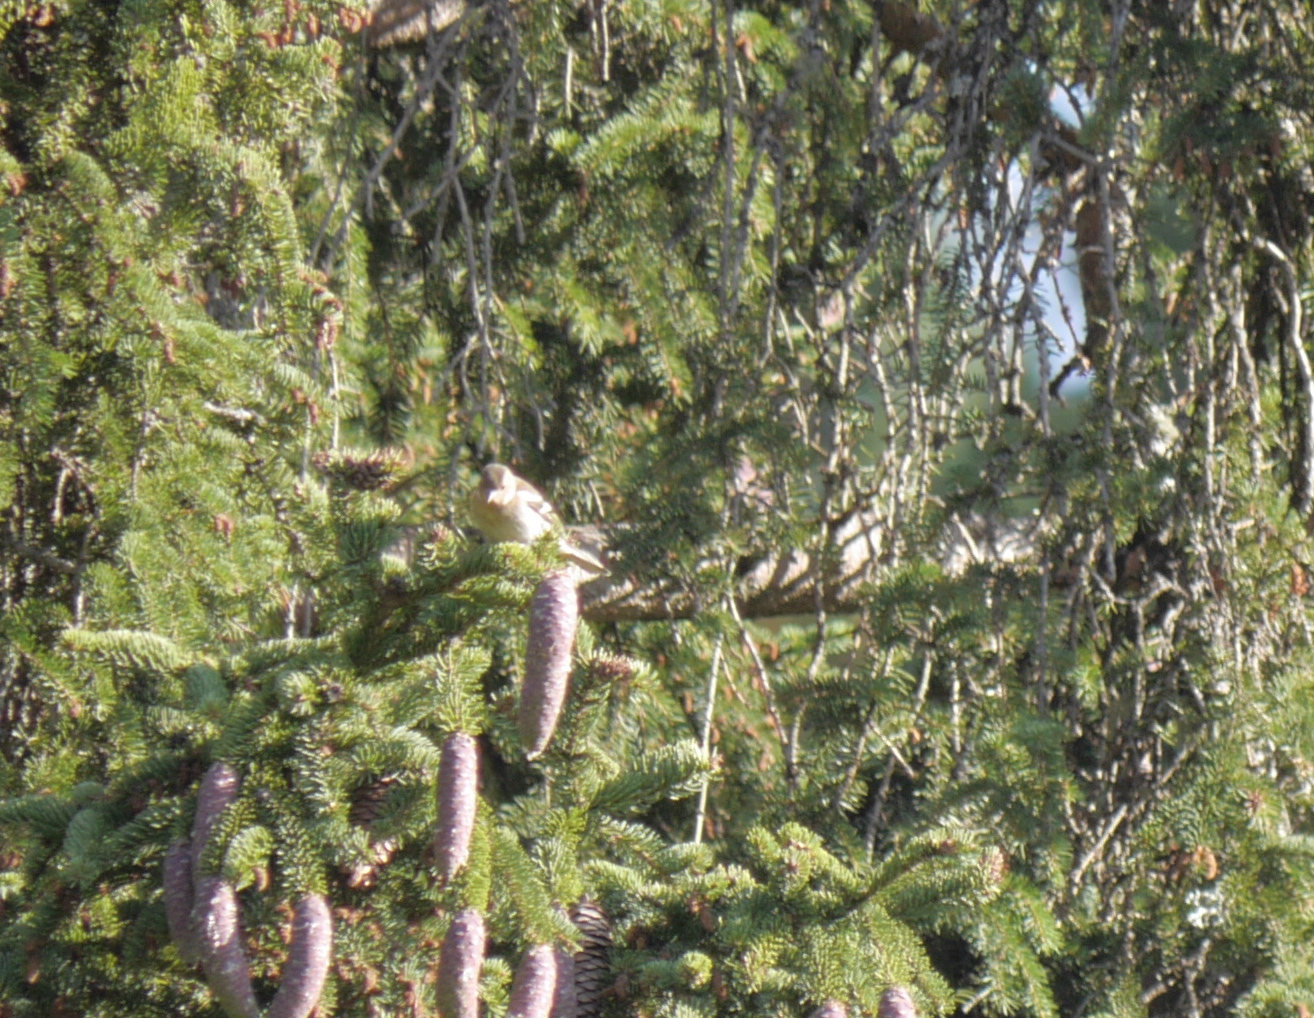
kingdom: Animalia
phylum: Chordata
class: Aves
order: Passeriformes
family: Fringillidae
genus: Fringilla
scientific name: Fringilla coelebs
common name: Common chaffinch
